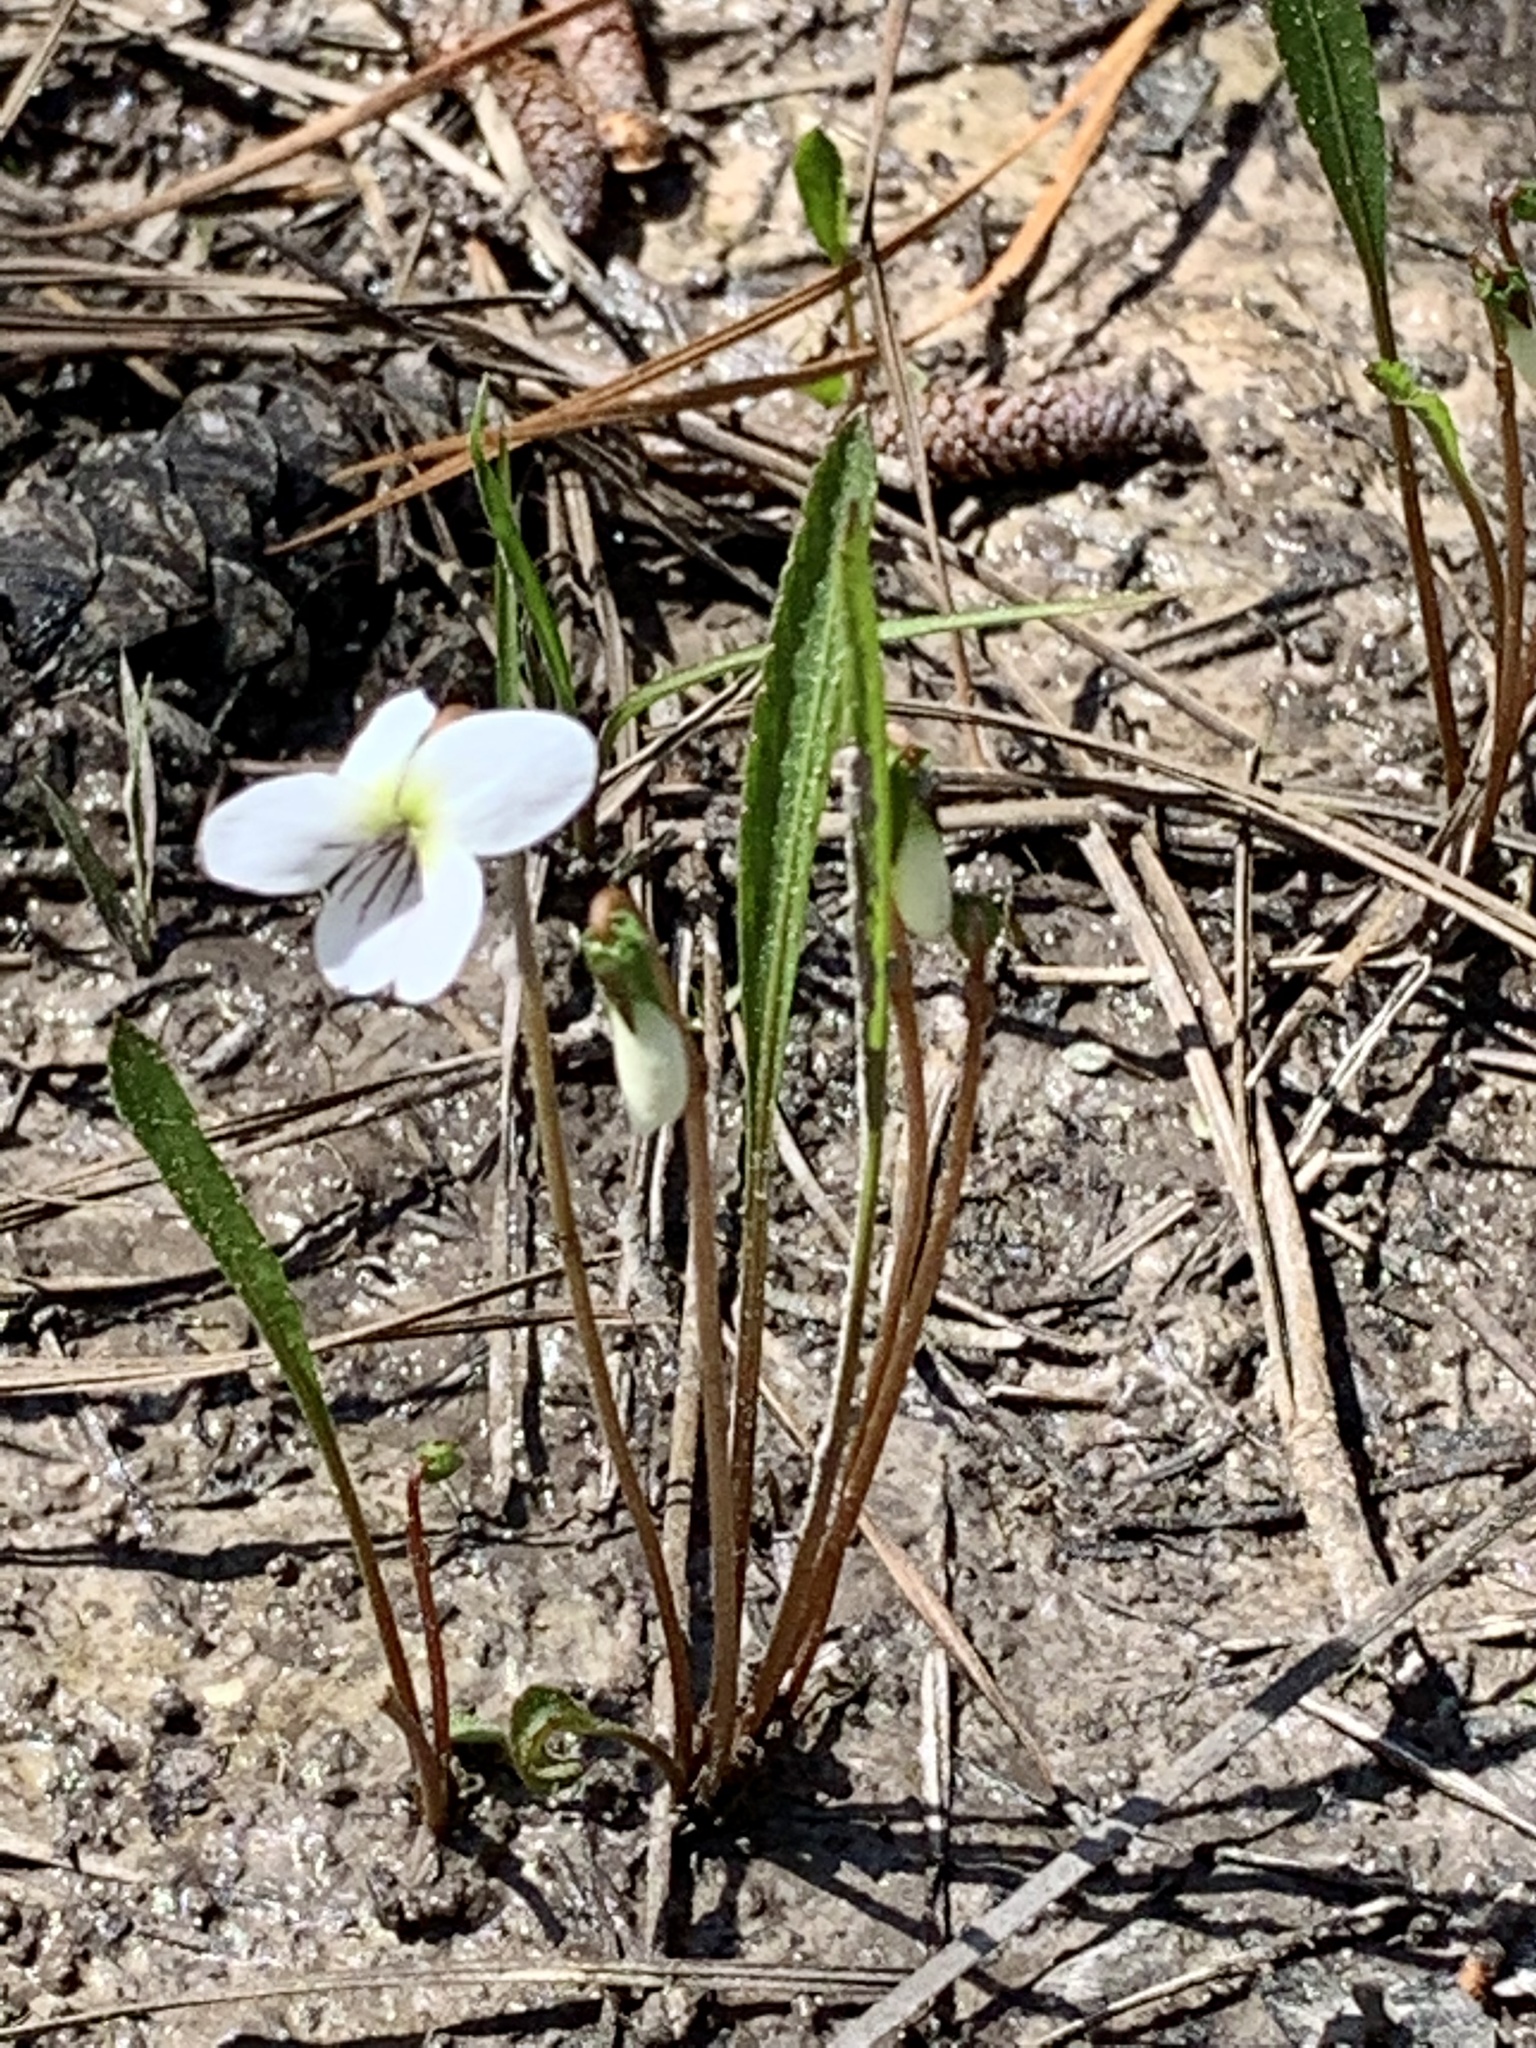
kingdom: Plantae
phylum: Tracheophyta
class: Magnoliopsida
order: Malpighiales
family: Violaceae
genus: Viola
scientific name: Viola lanceolata
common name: Bog white violet
